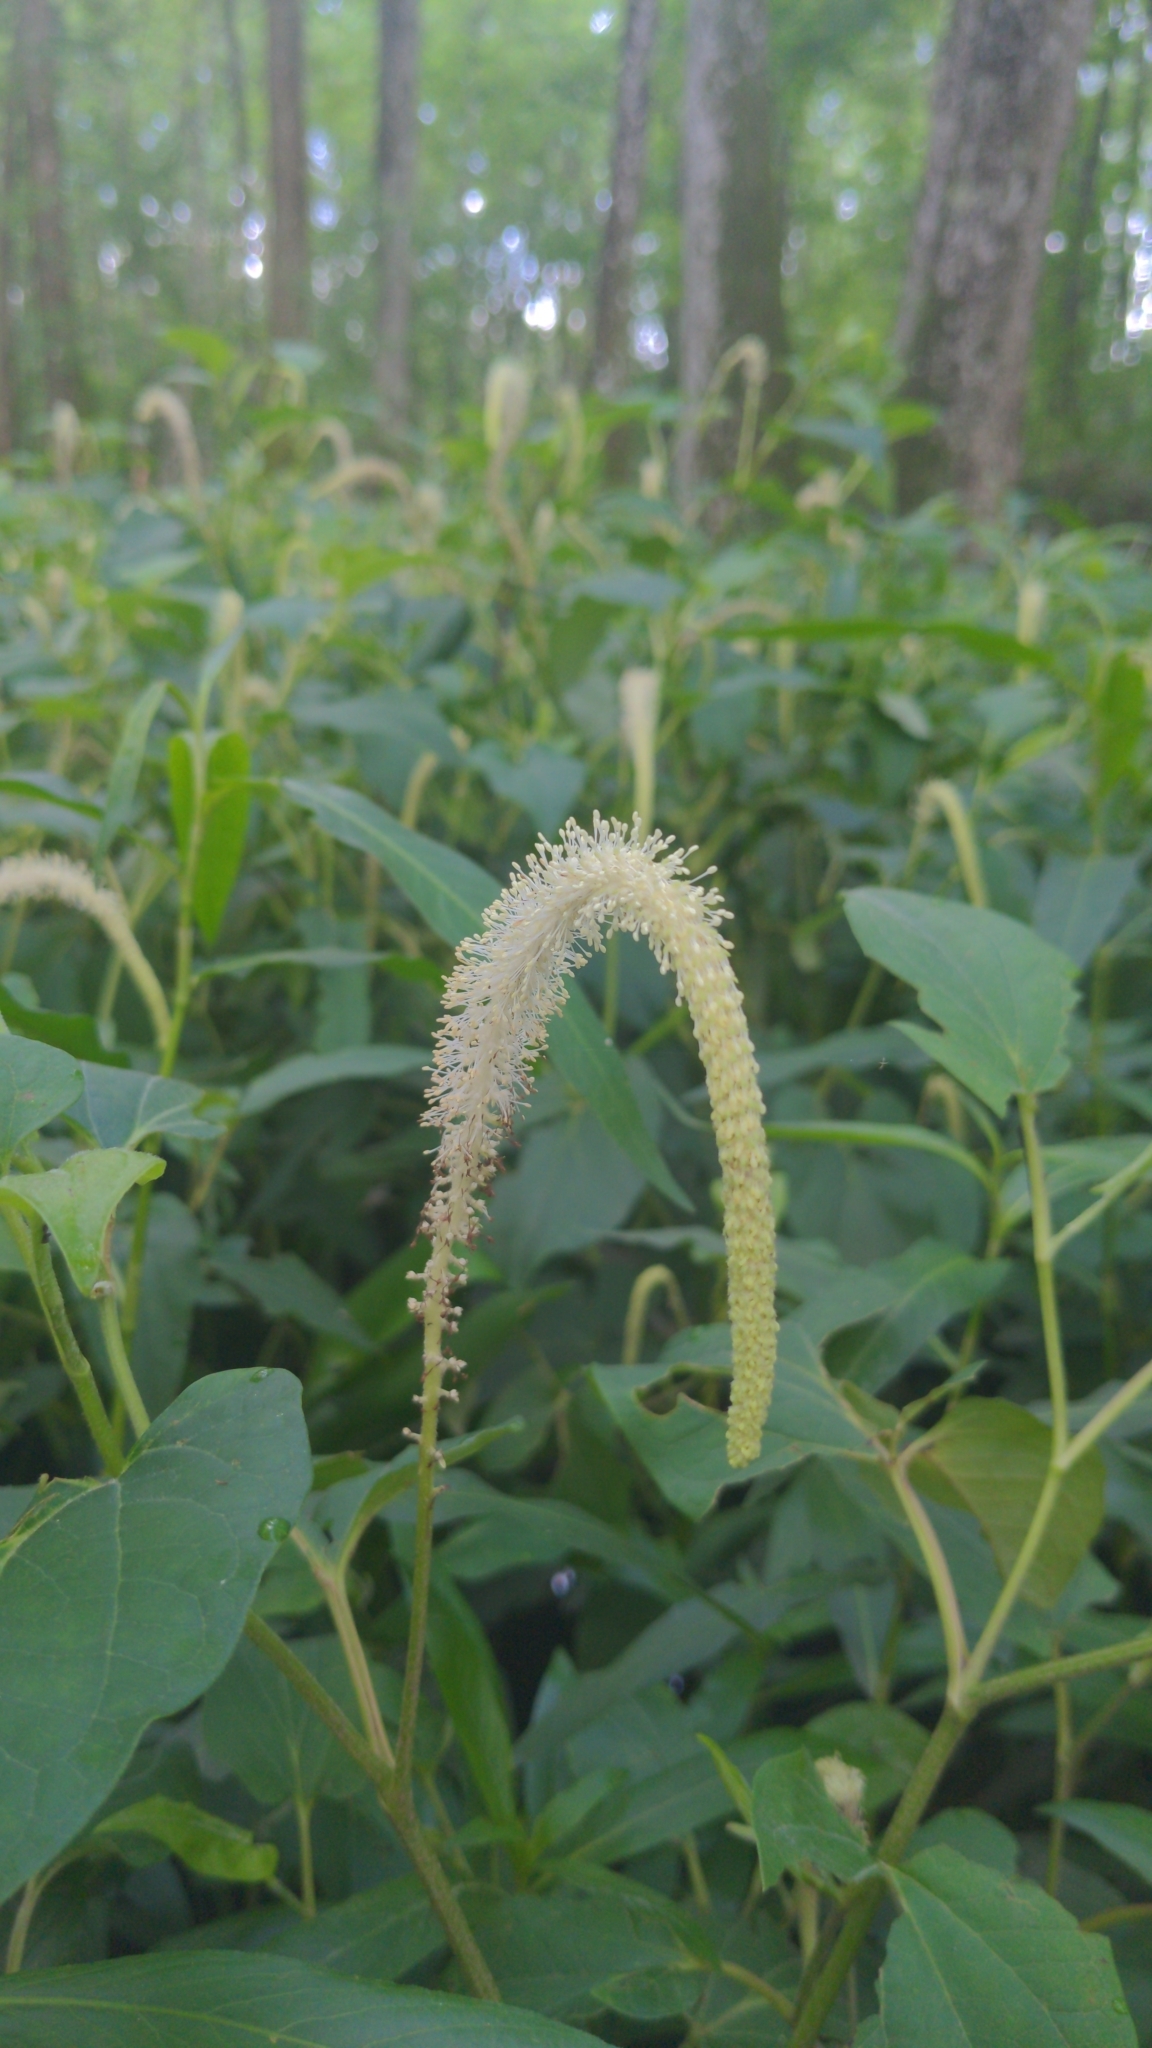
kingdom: Plantae
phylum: Tracheophyta
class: Magnoliopsida
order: Piperales
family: Saururaceae
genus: Saururus
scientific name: Saururus cernuus
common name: Lizard's-tail
